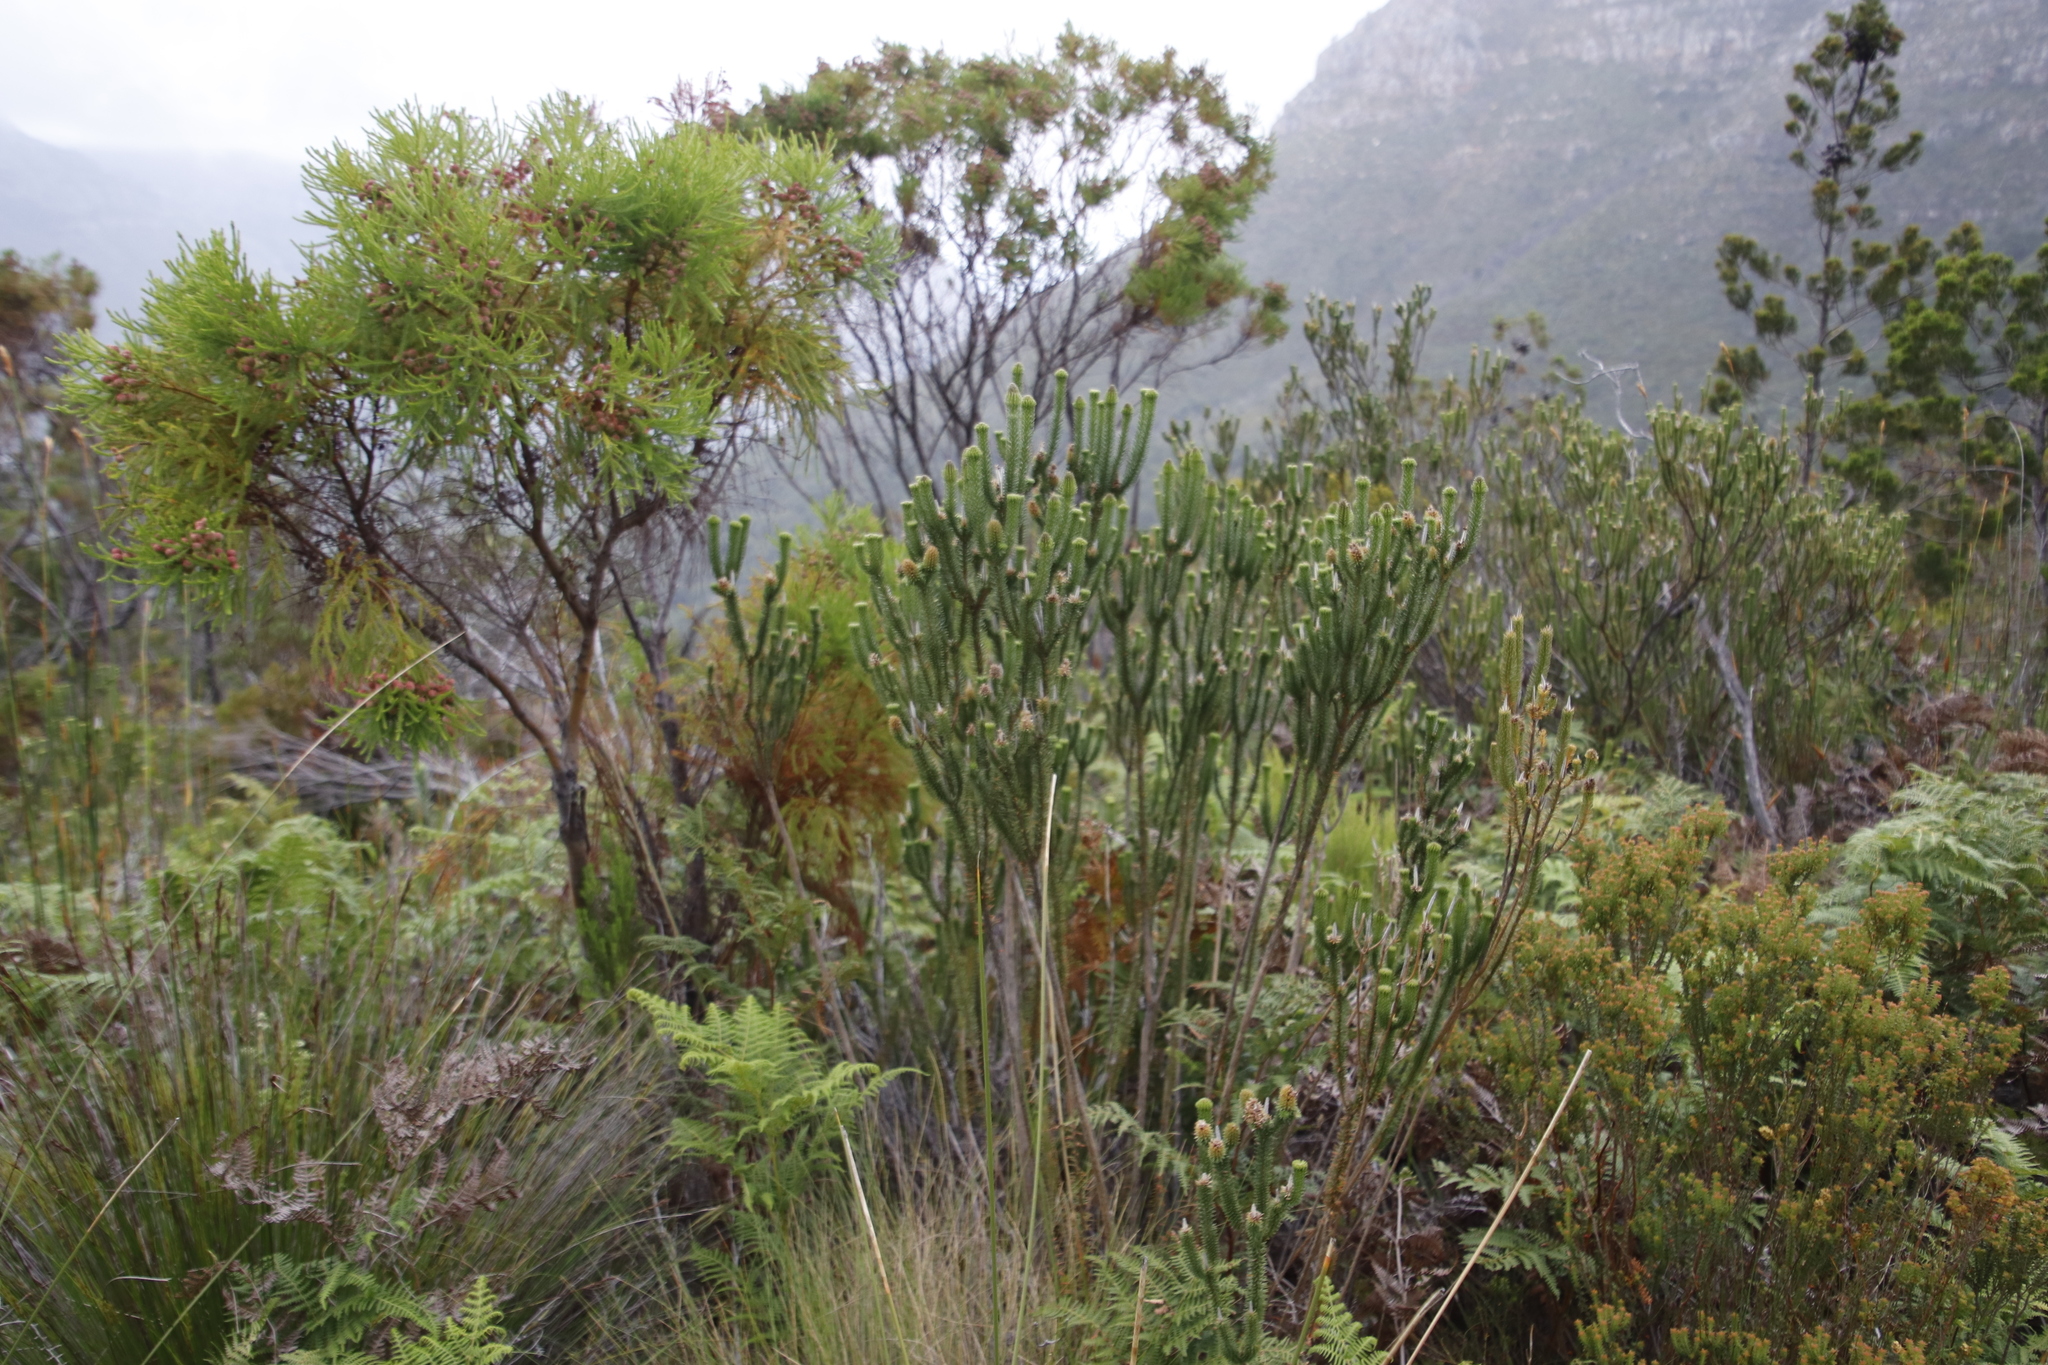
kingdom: Plantae
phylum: Tracheophyta
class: Magnoliopsida
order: Lamiales
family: Stilbaceae
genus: Stilbe
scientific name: Stilbe vestita
